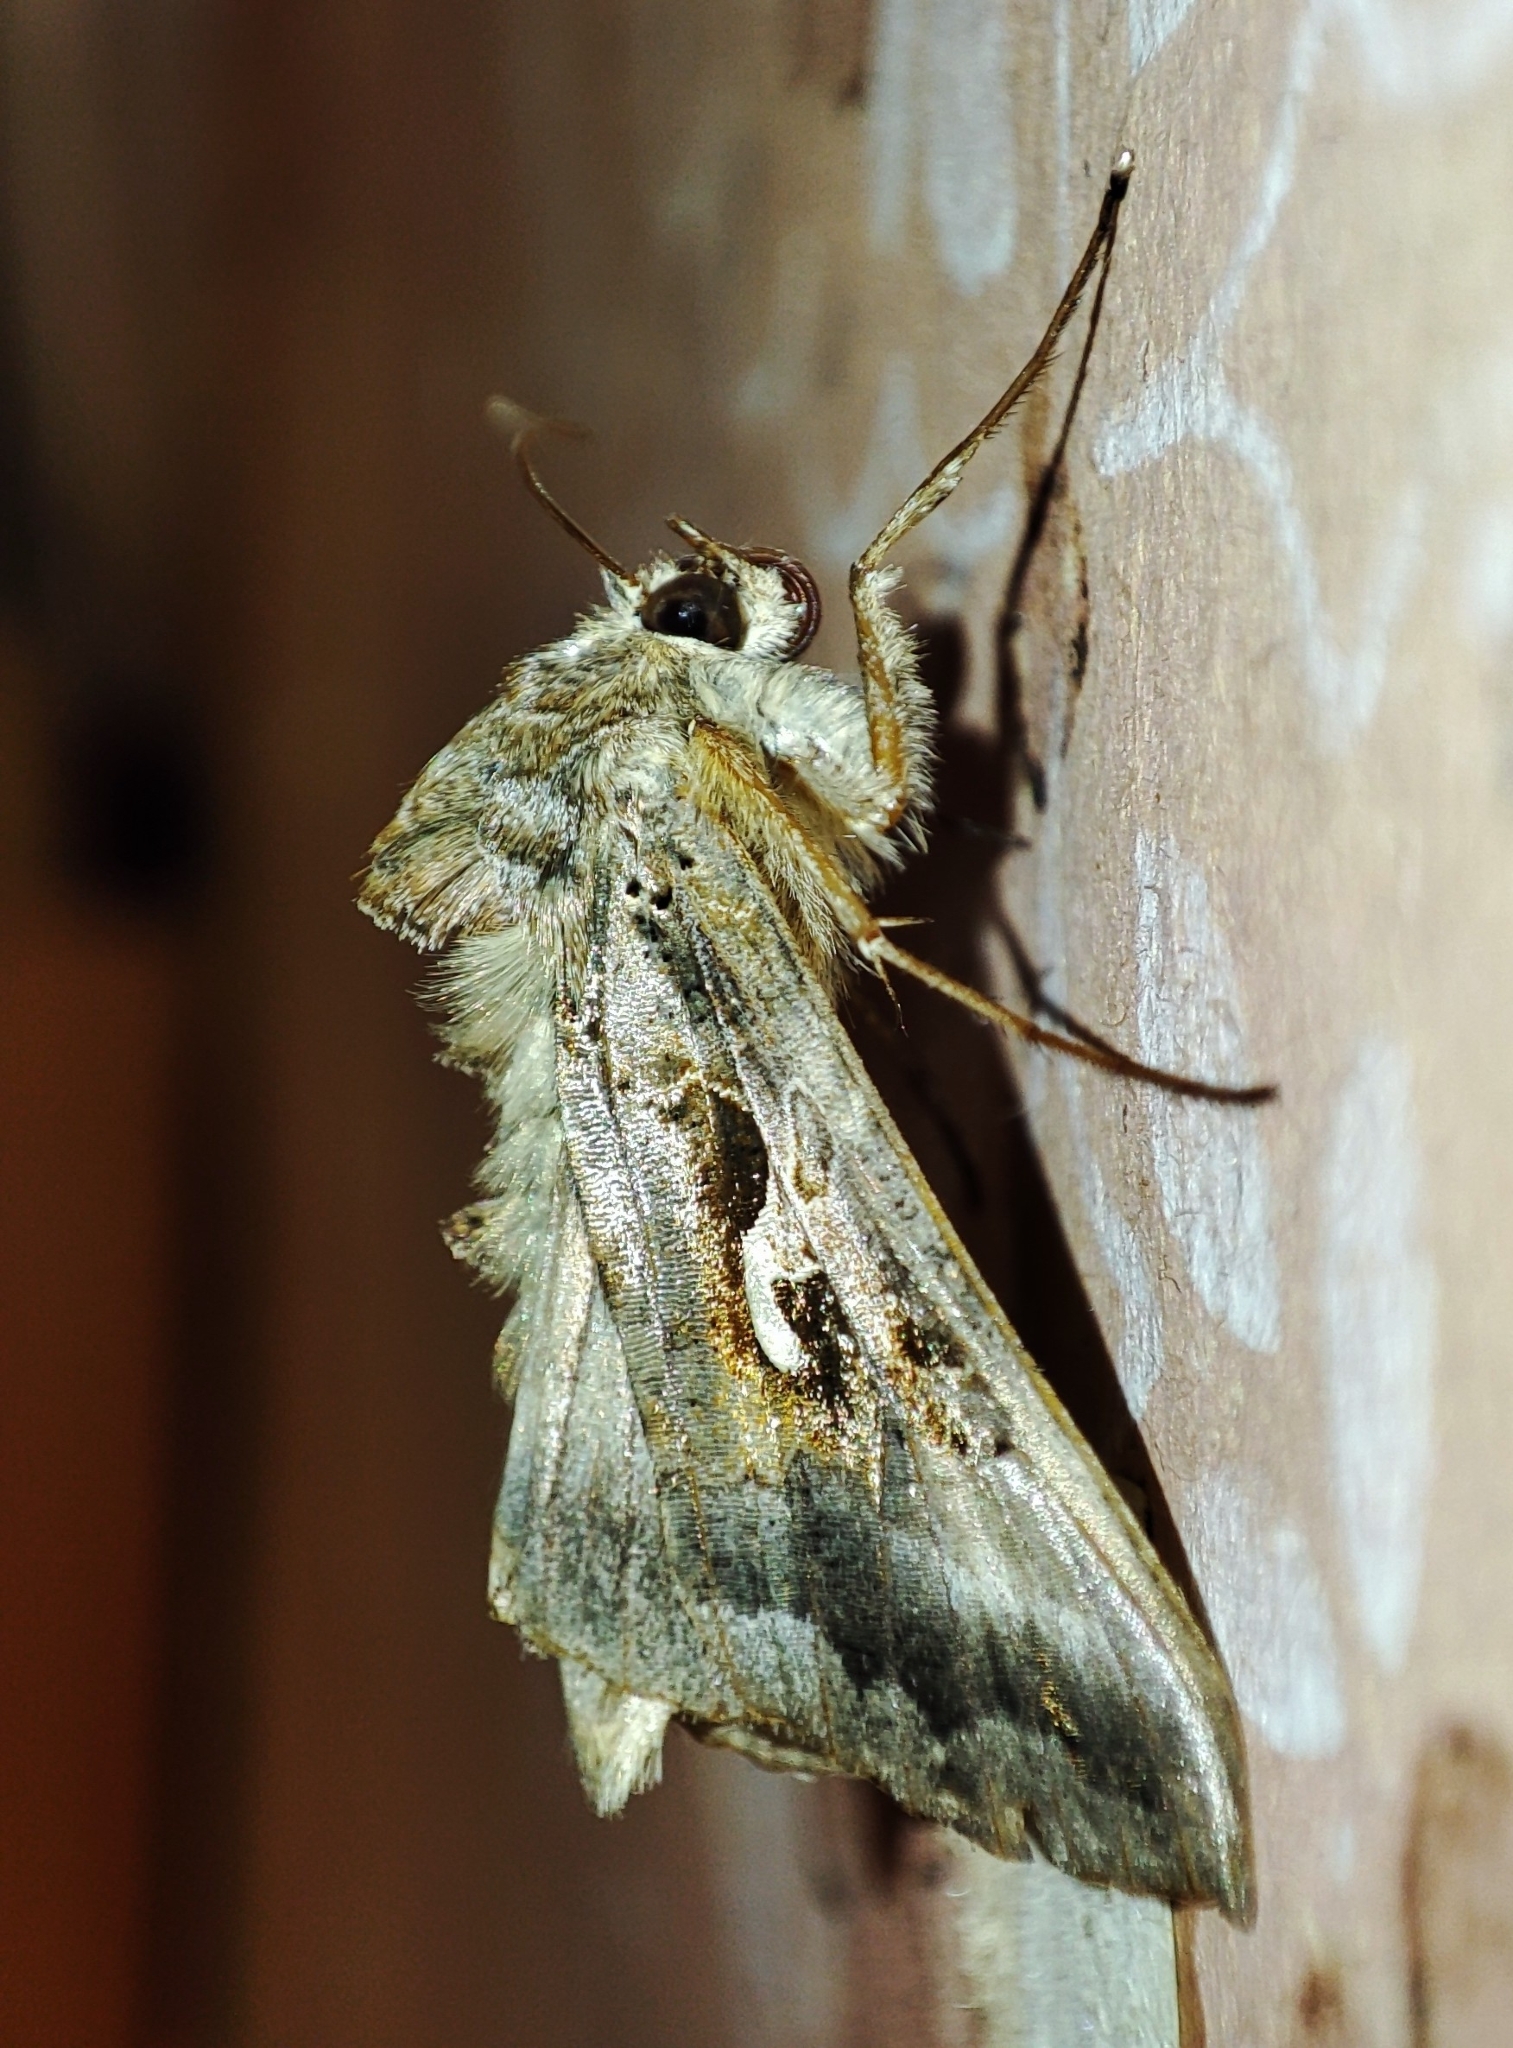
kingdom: Animalia
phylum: Arthropoda
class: Insecta
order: Lepidoptera
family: Noctuidae
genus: Autographa
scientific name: Autographa gamma
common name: Silver y
